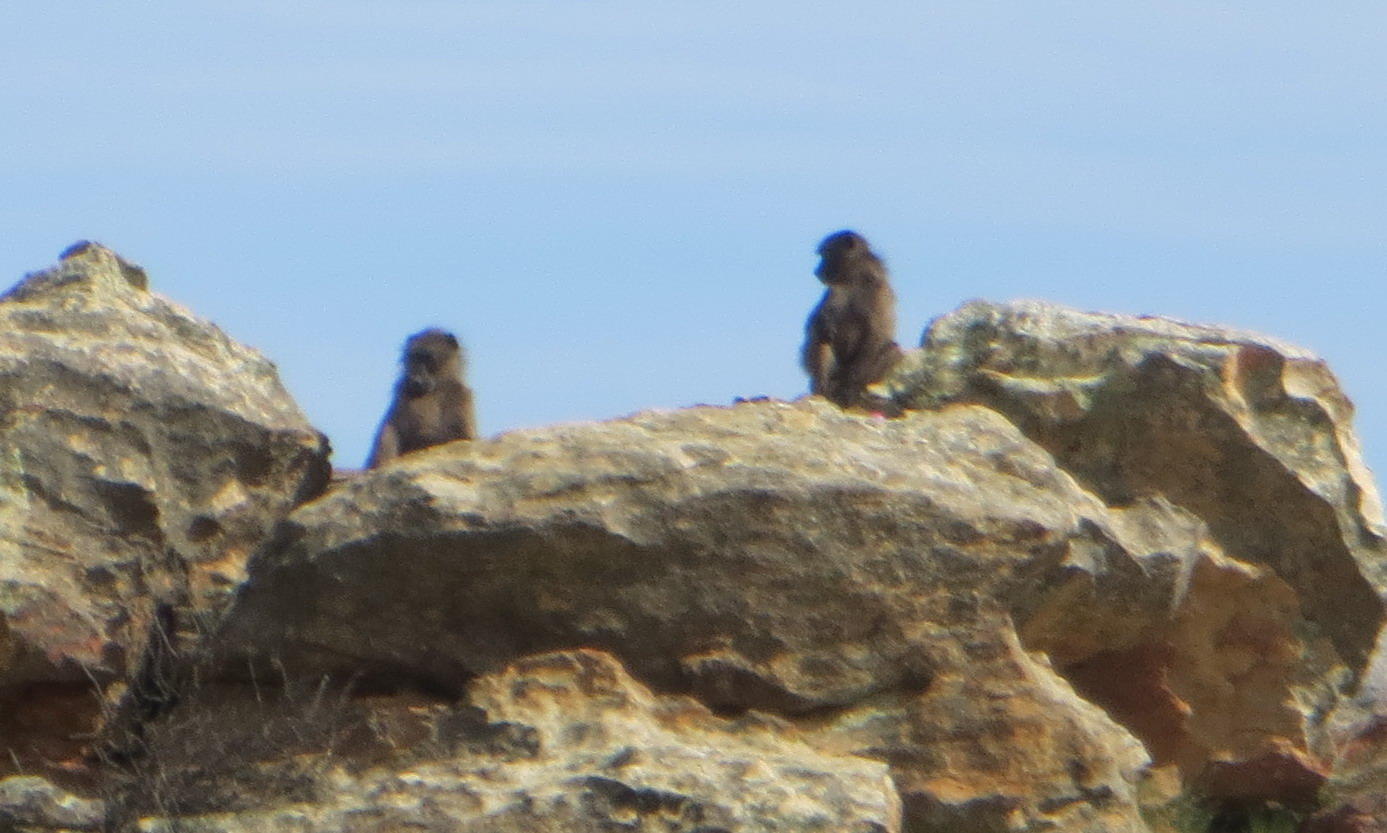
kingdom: Animalia
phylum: Chordata
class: Mammalia
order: Primates
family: Cercopithecidae
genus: Papio
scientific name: Papio ursinus
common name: Chacma baboon
